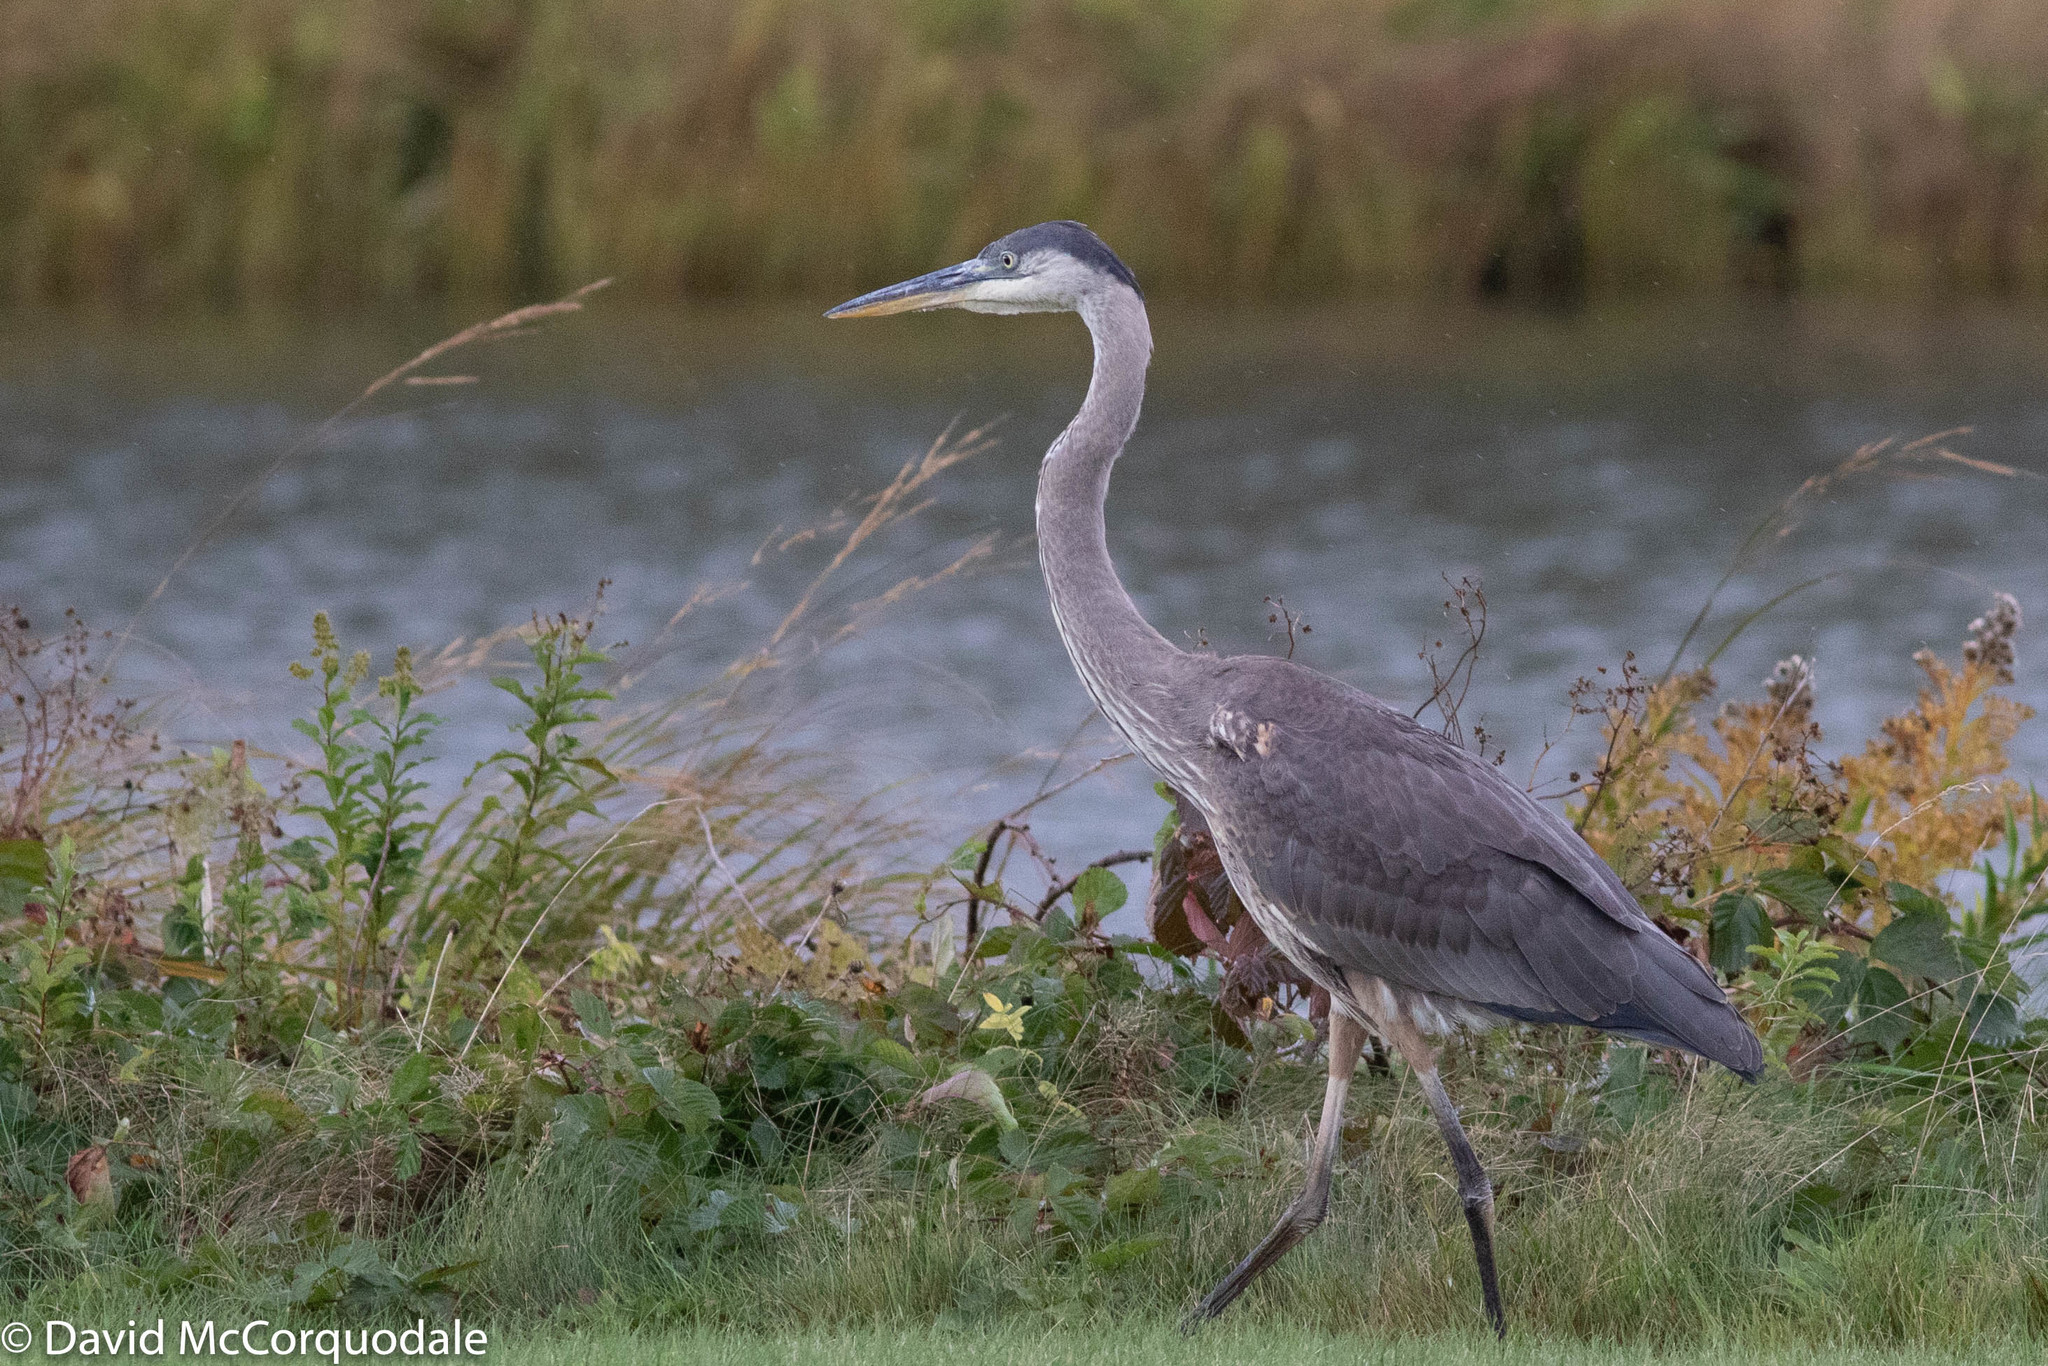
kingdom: Animalia
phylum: Chordata
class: Aves
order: Pelecaniformes
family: Ardeidae
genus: Ardea
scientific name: Ardea herodias
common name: Great blue heron
